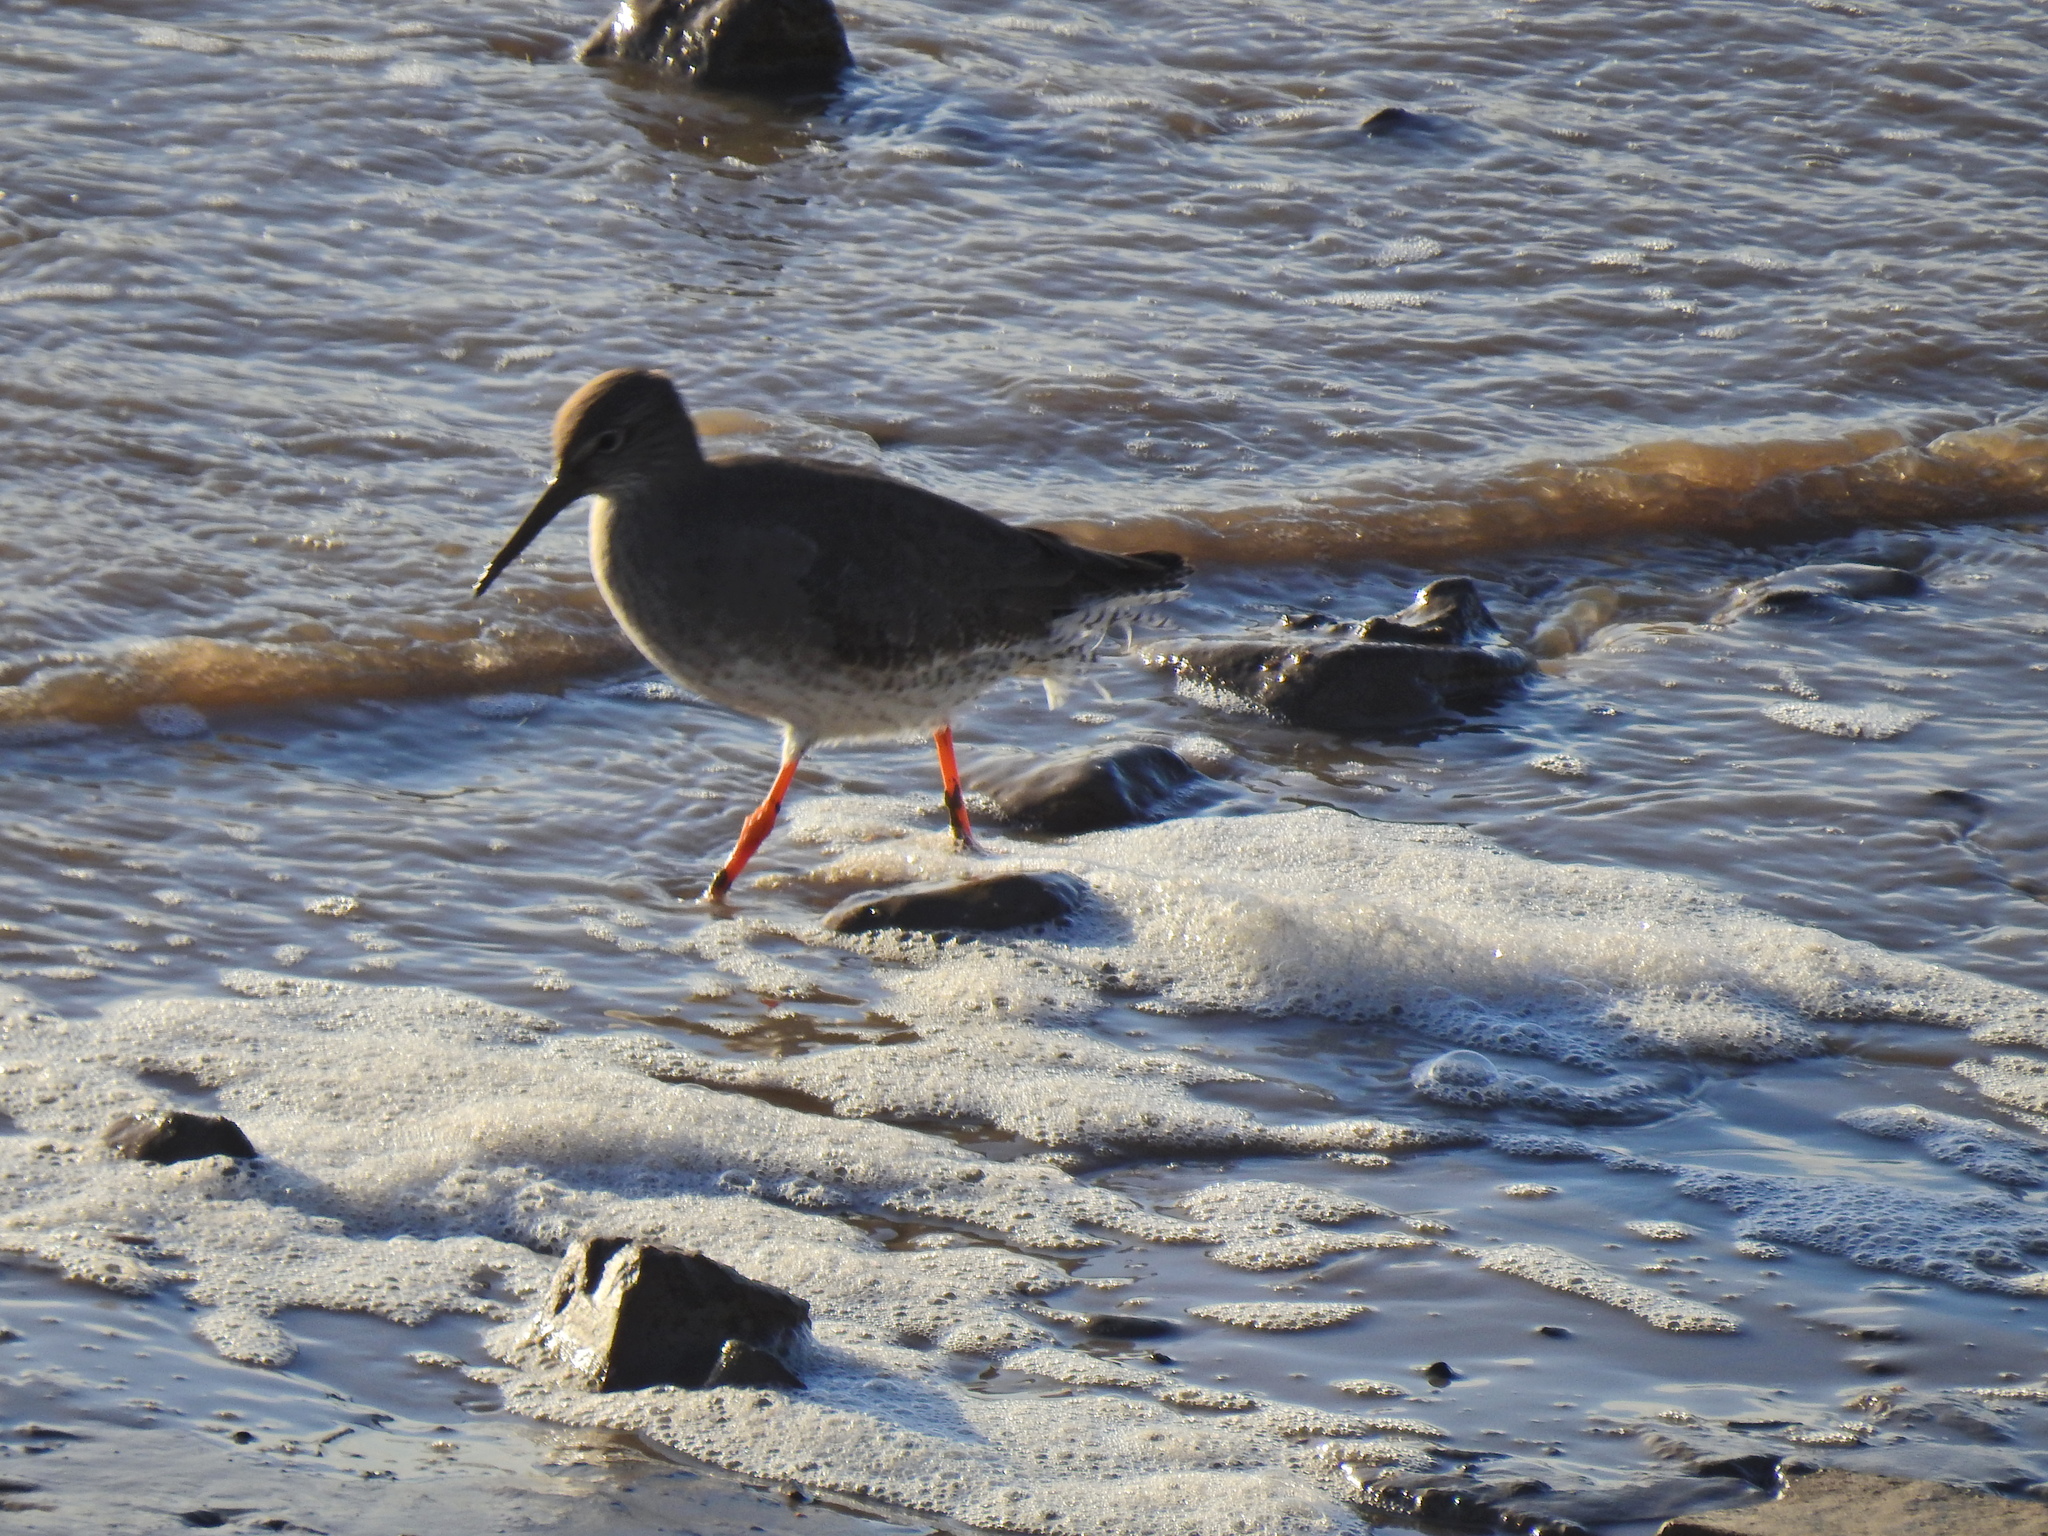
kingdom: Animalia
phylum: Chordata
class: Aves
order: Charadriiformes
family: Scolopacidae
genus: Tringa
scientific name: Tringa totanus
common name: Common redshank
